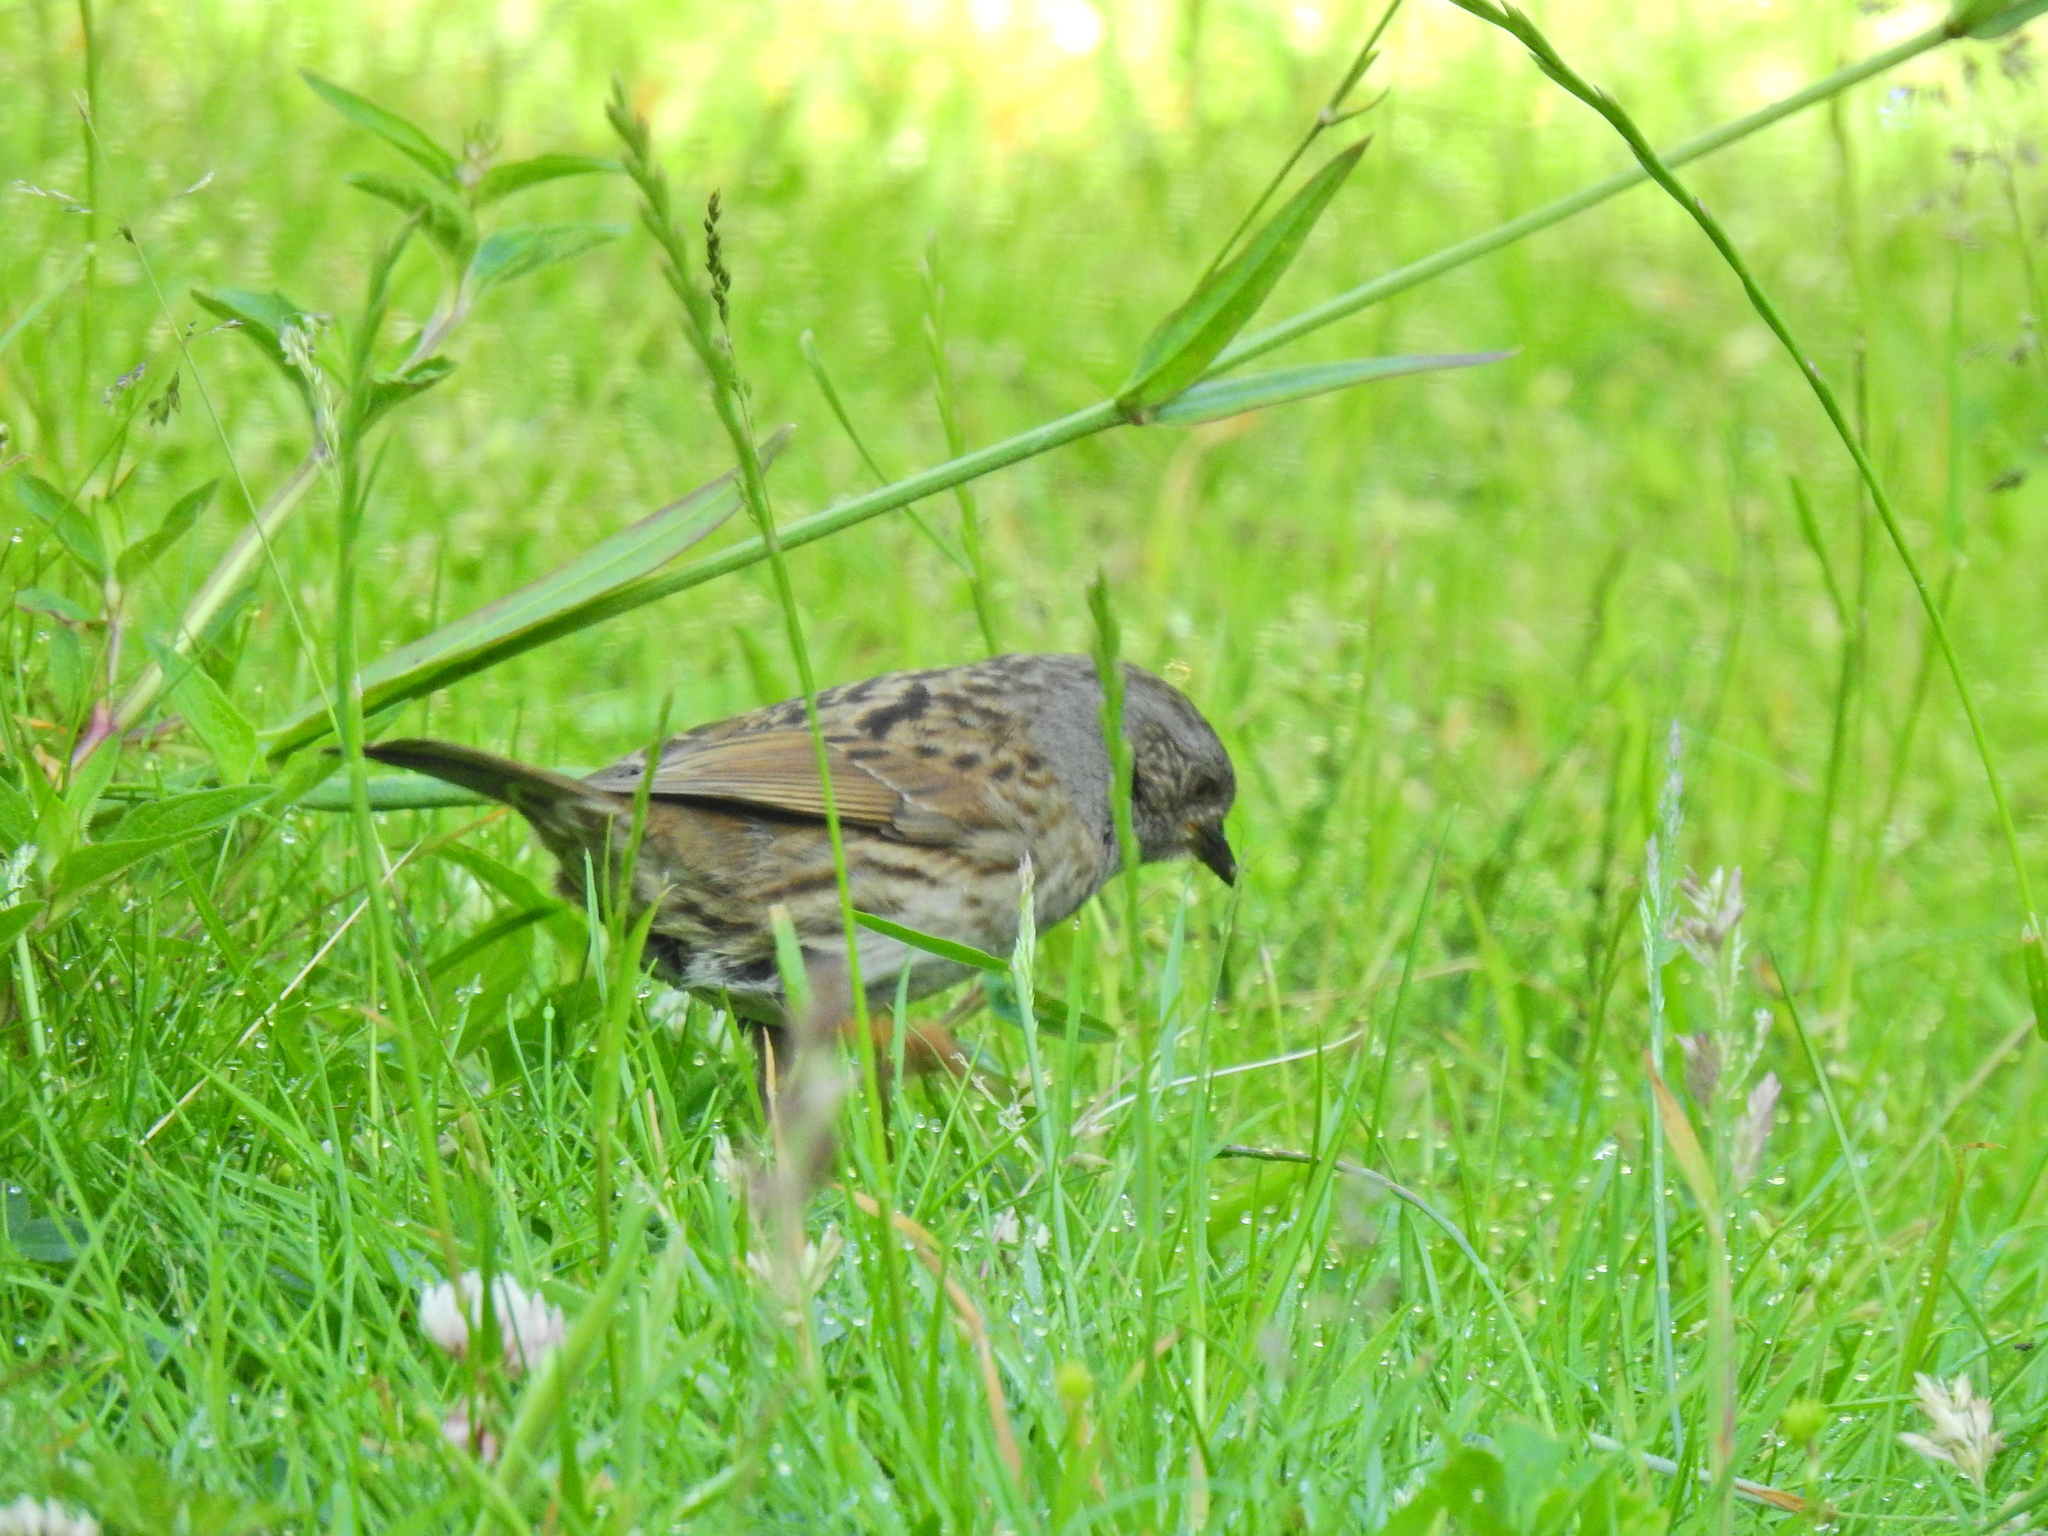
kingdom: Animalia
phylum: Chordata
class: Aves
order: Passeriformes
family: Prunellidae
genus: Prunella
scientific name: Prunella modularis
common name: Dunnock
